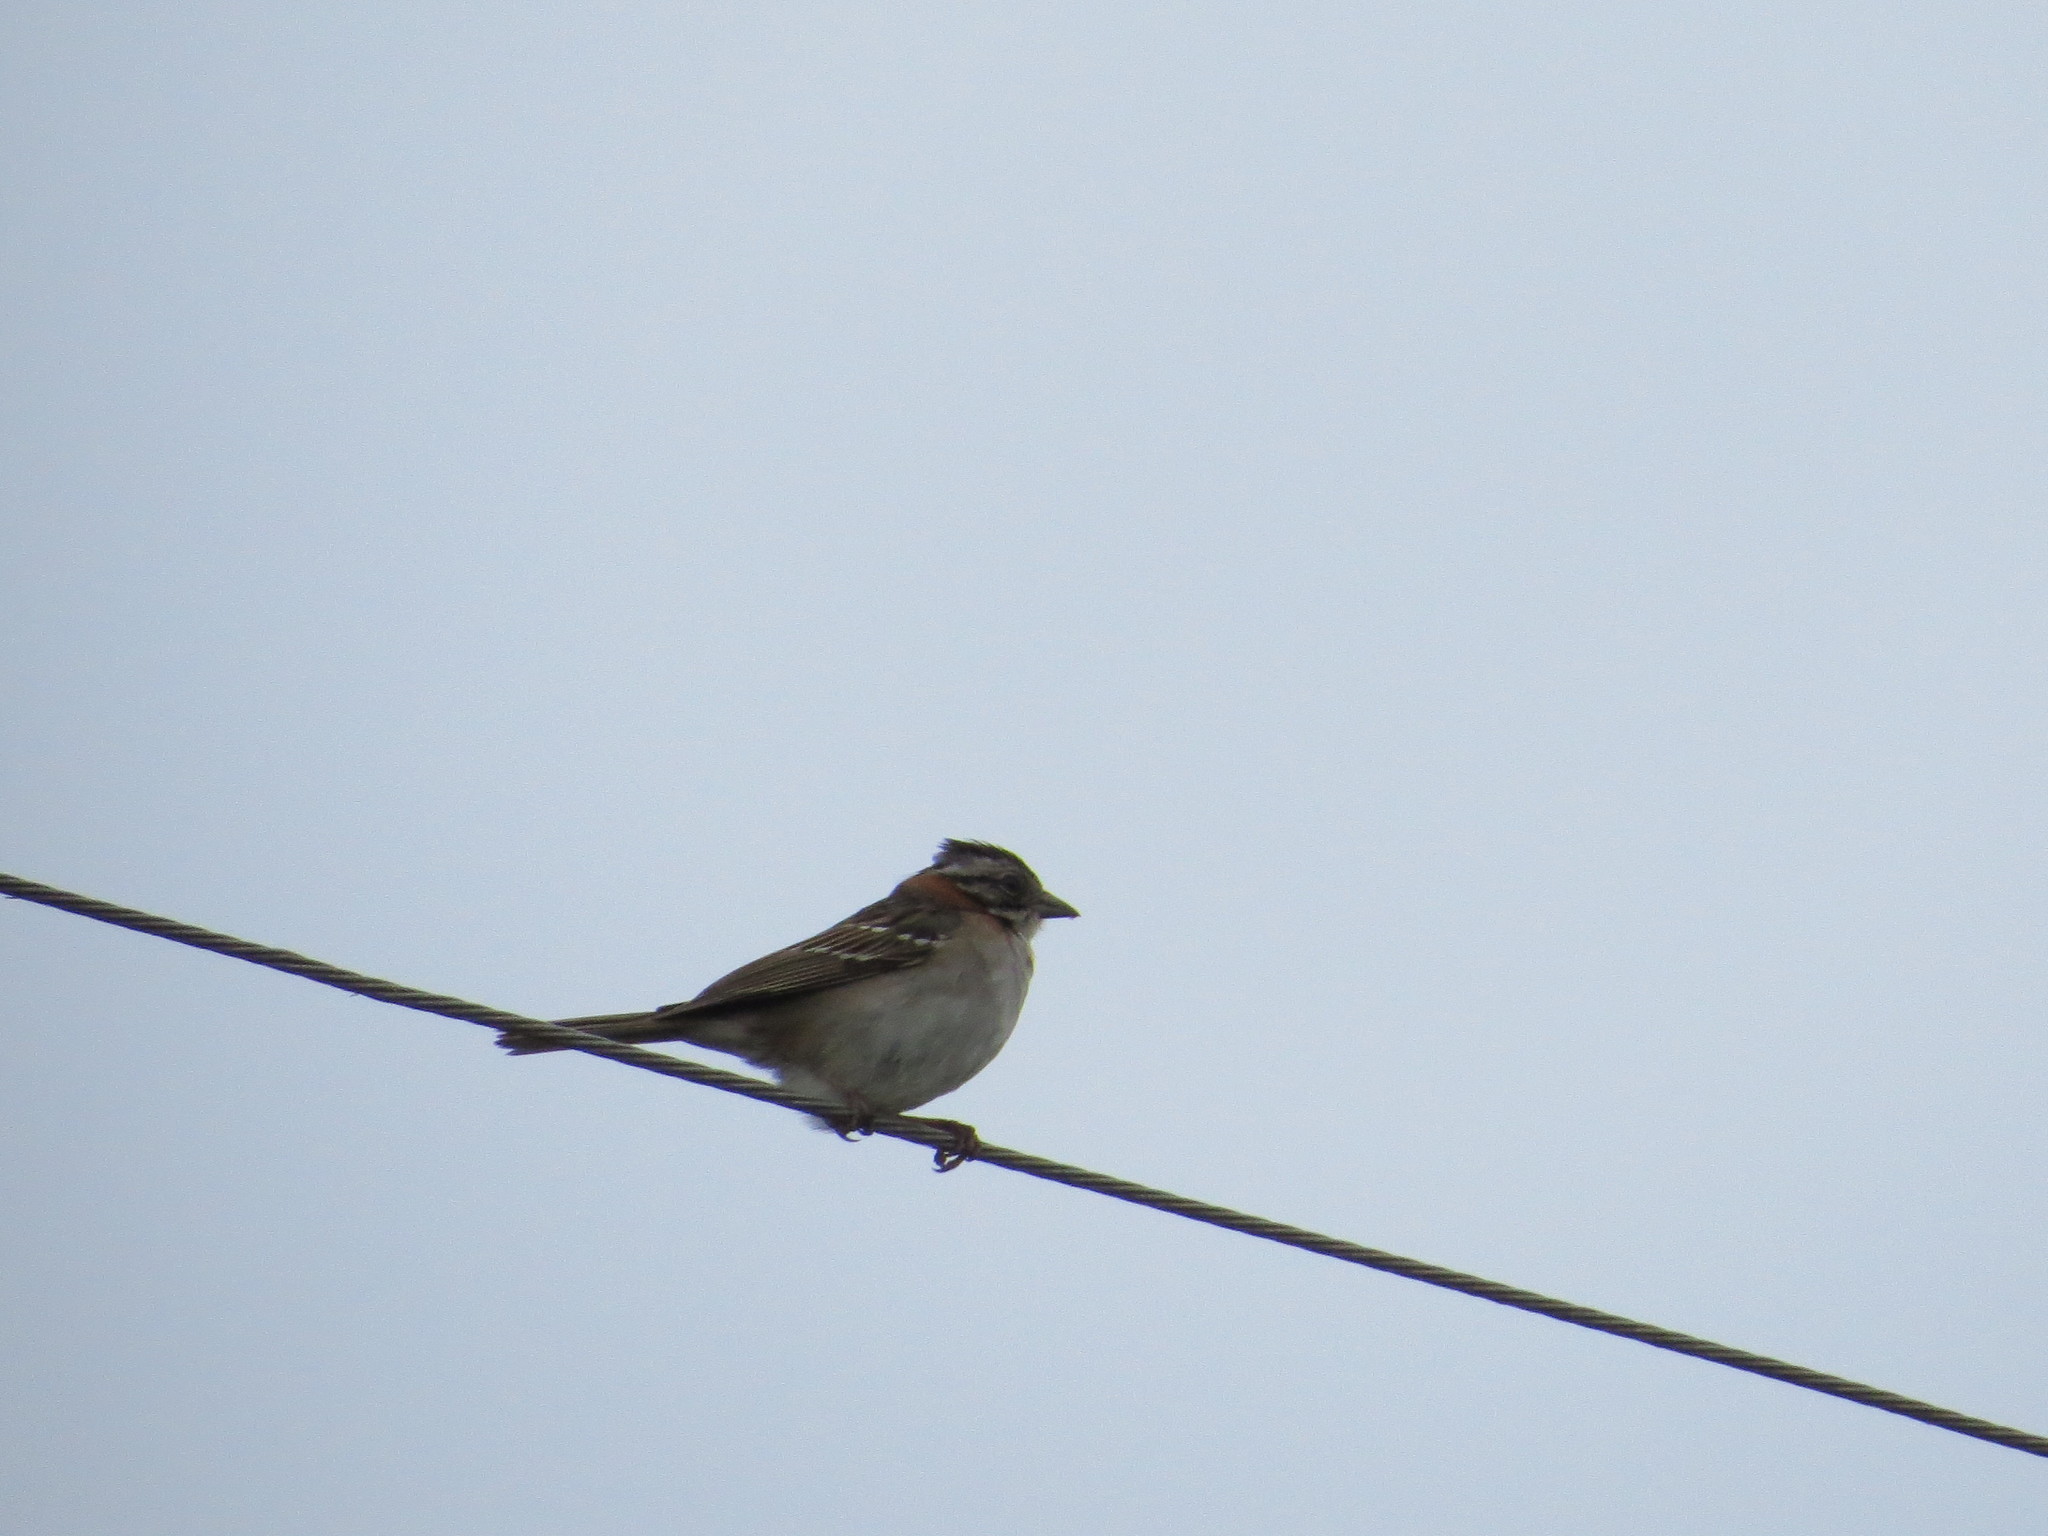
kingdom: Animalia
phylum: Chordata
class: Aves
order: Passeriformes
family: Passerellidae
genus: Zonotrichia
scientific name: Zonotrichia capensis
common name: Rufous-collared sparrow
